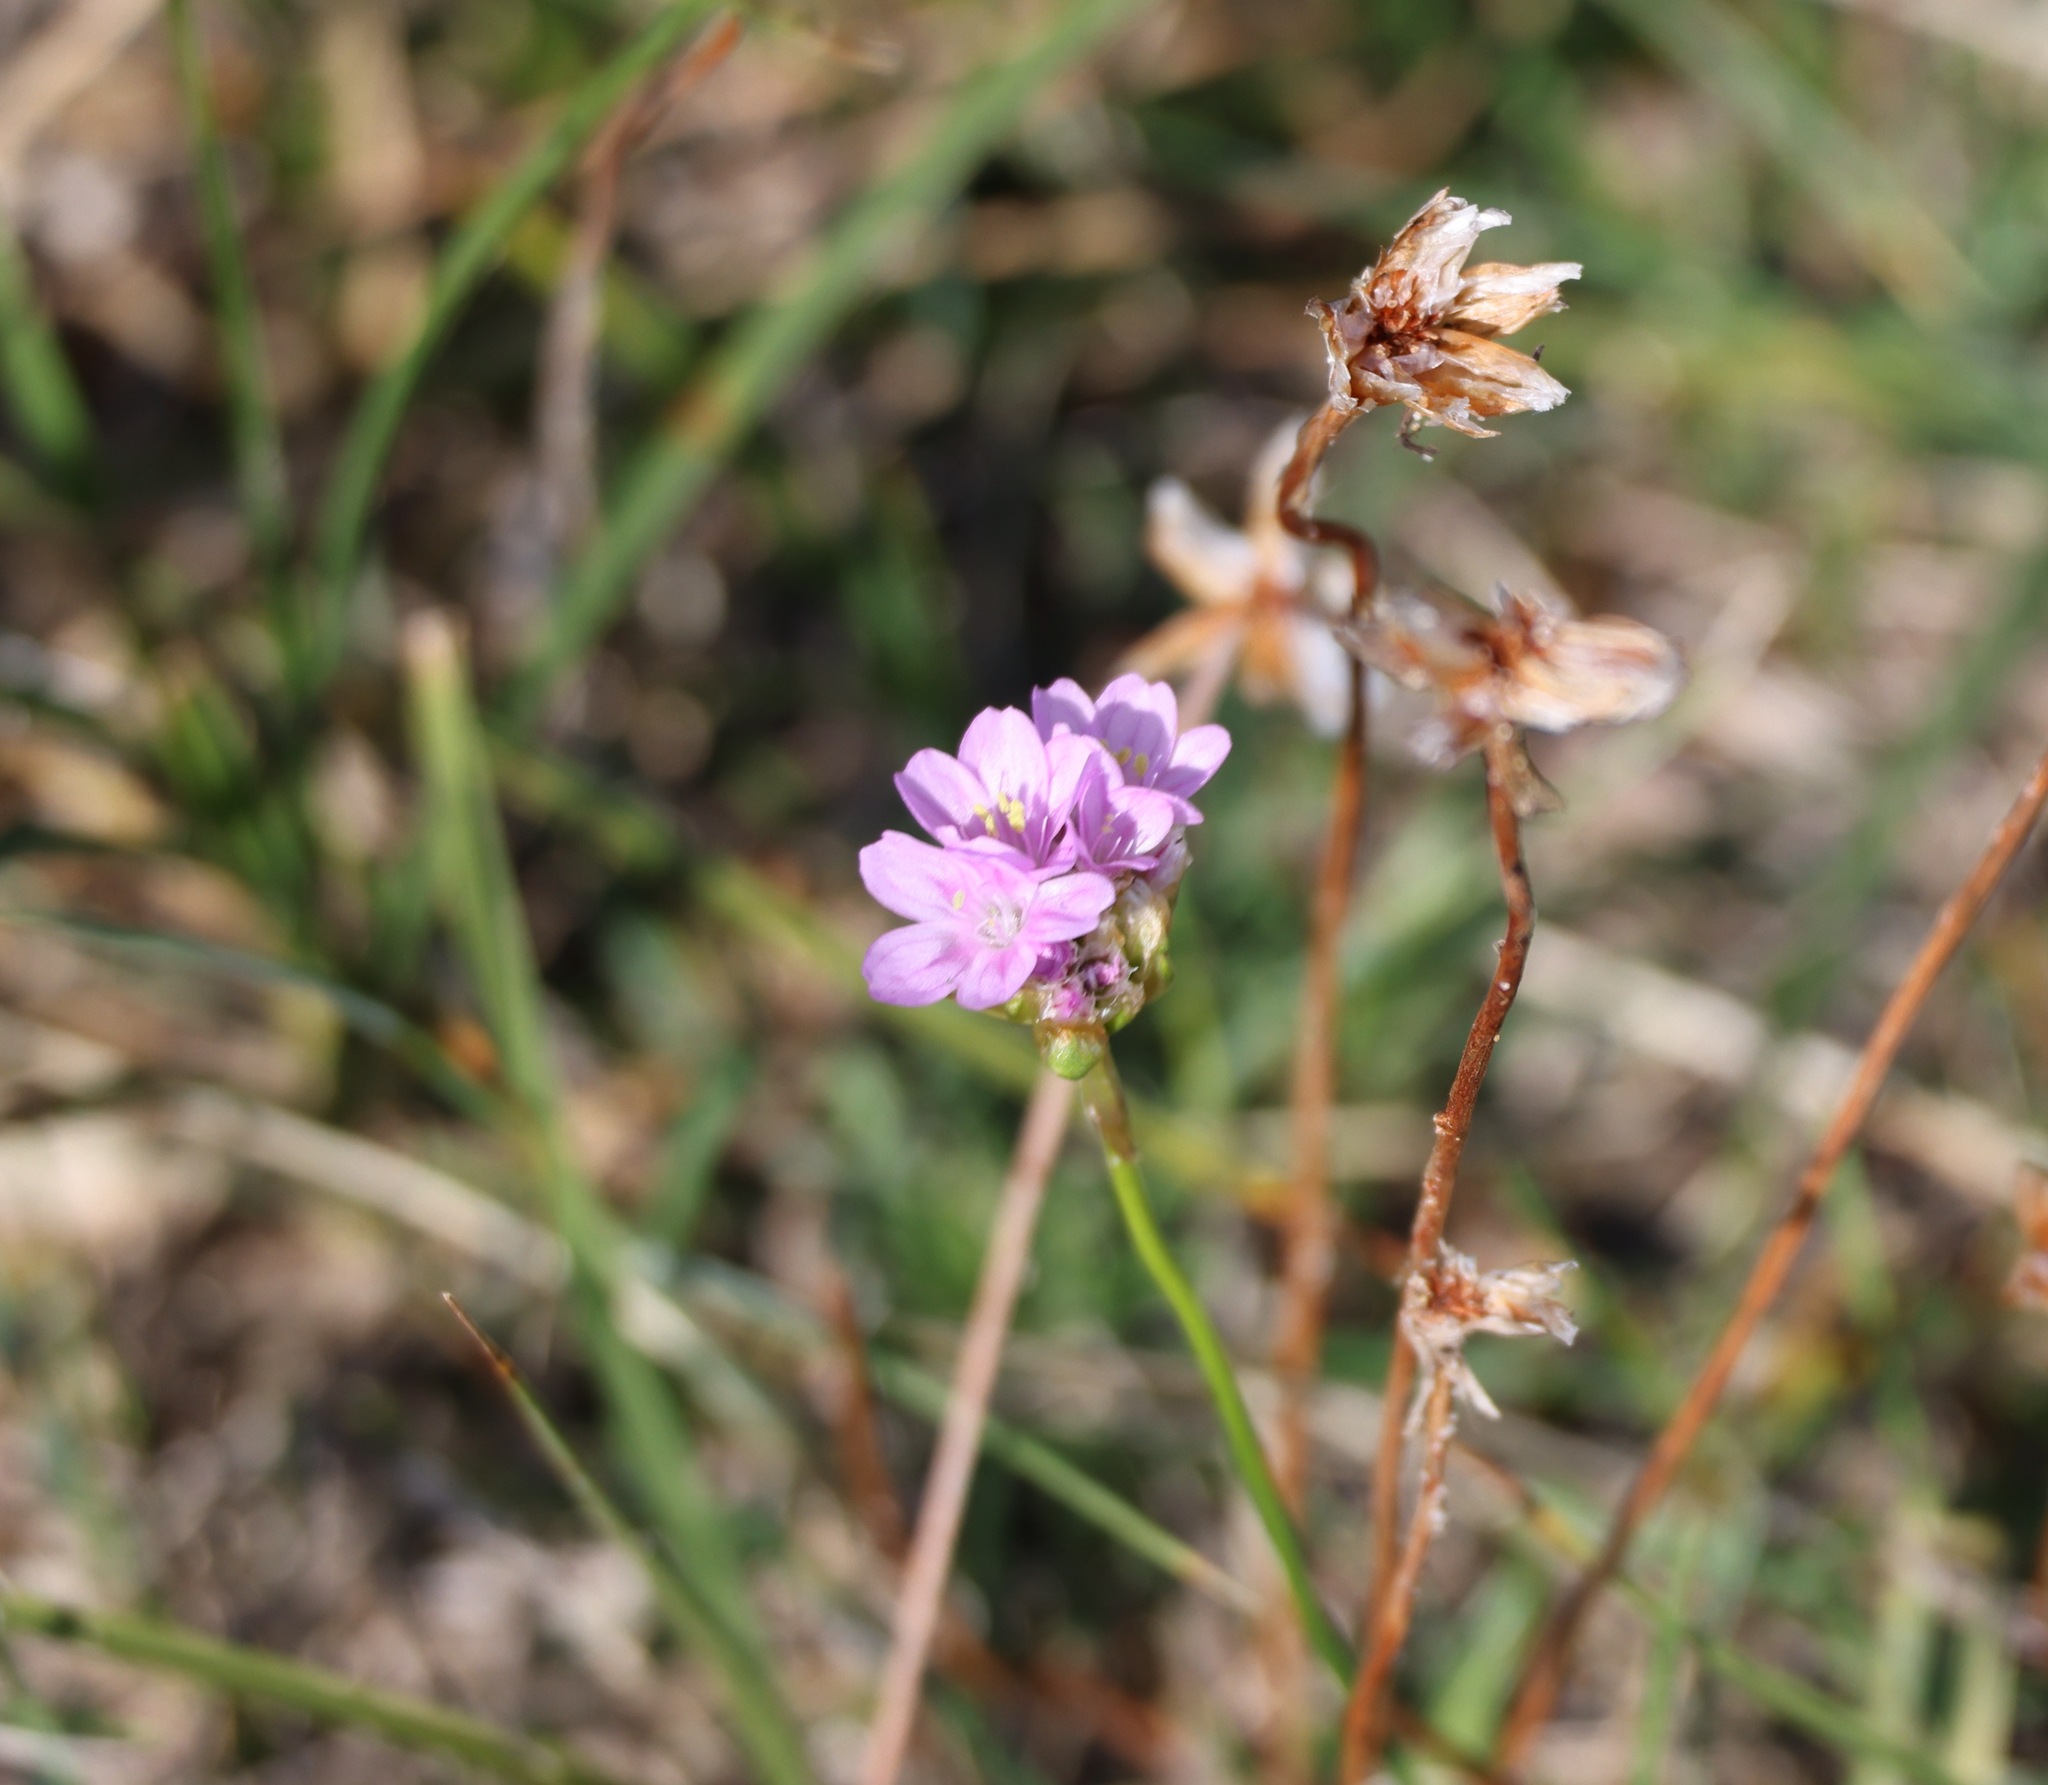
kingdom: Plantae
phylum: Tracheophyta
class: Magnoliopsida
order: Caryophyllales
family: Plumbaginaceae
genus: Armeria
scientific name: Armeria maritima
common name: Thrift
